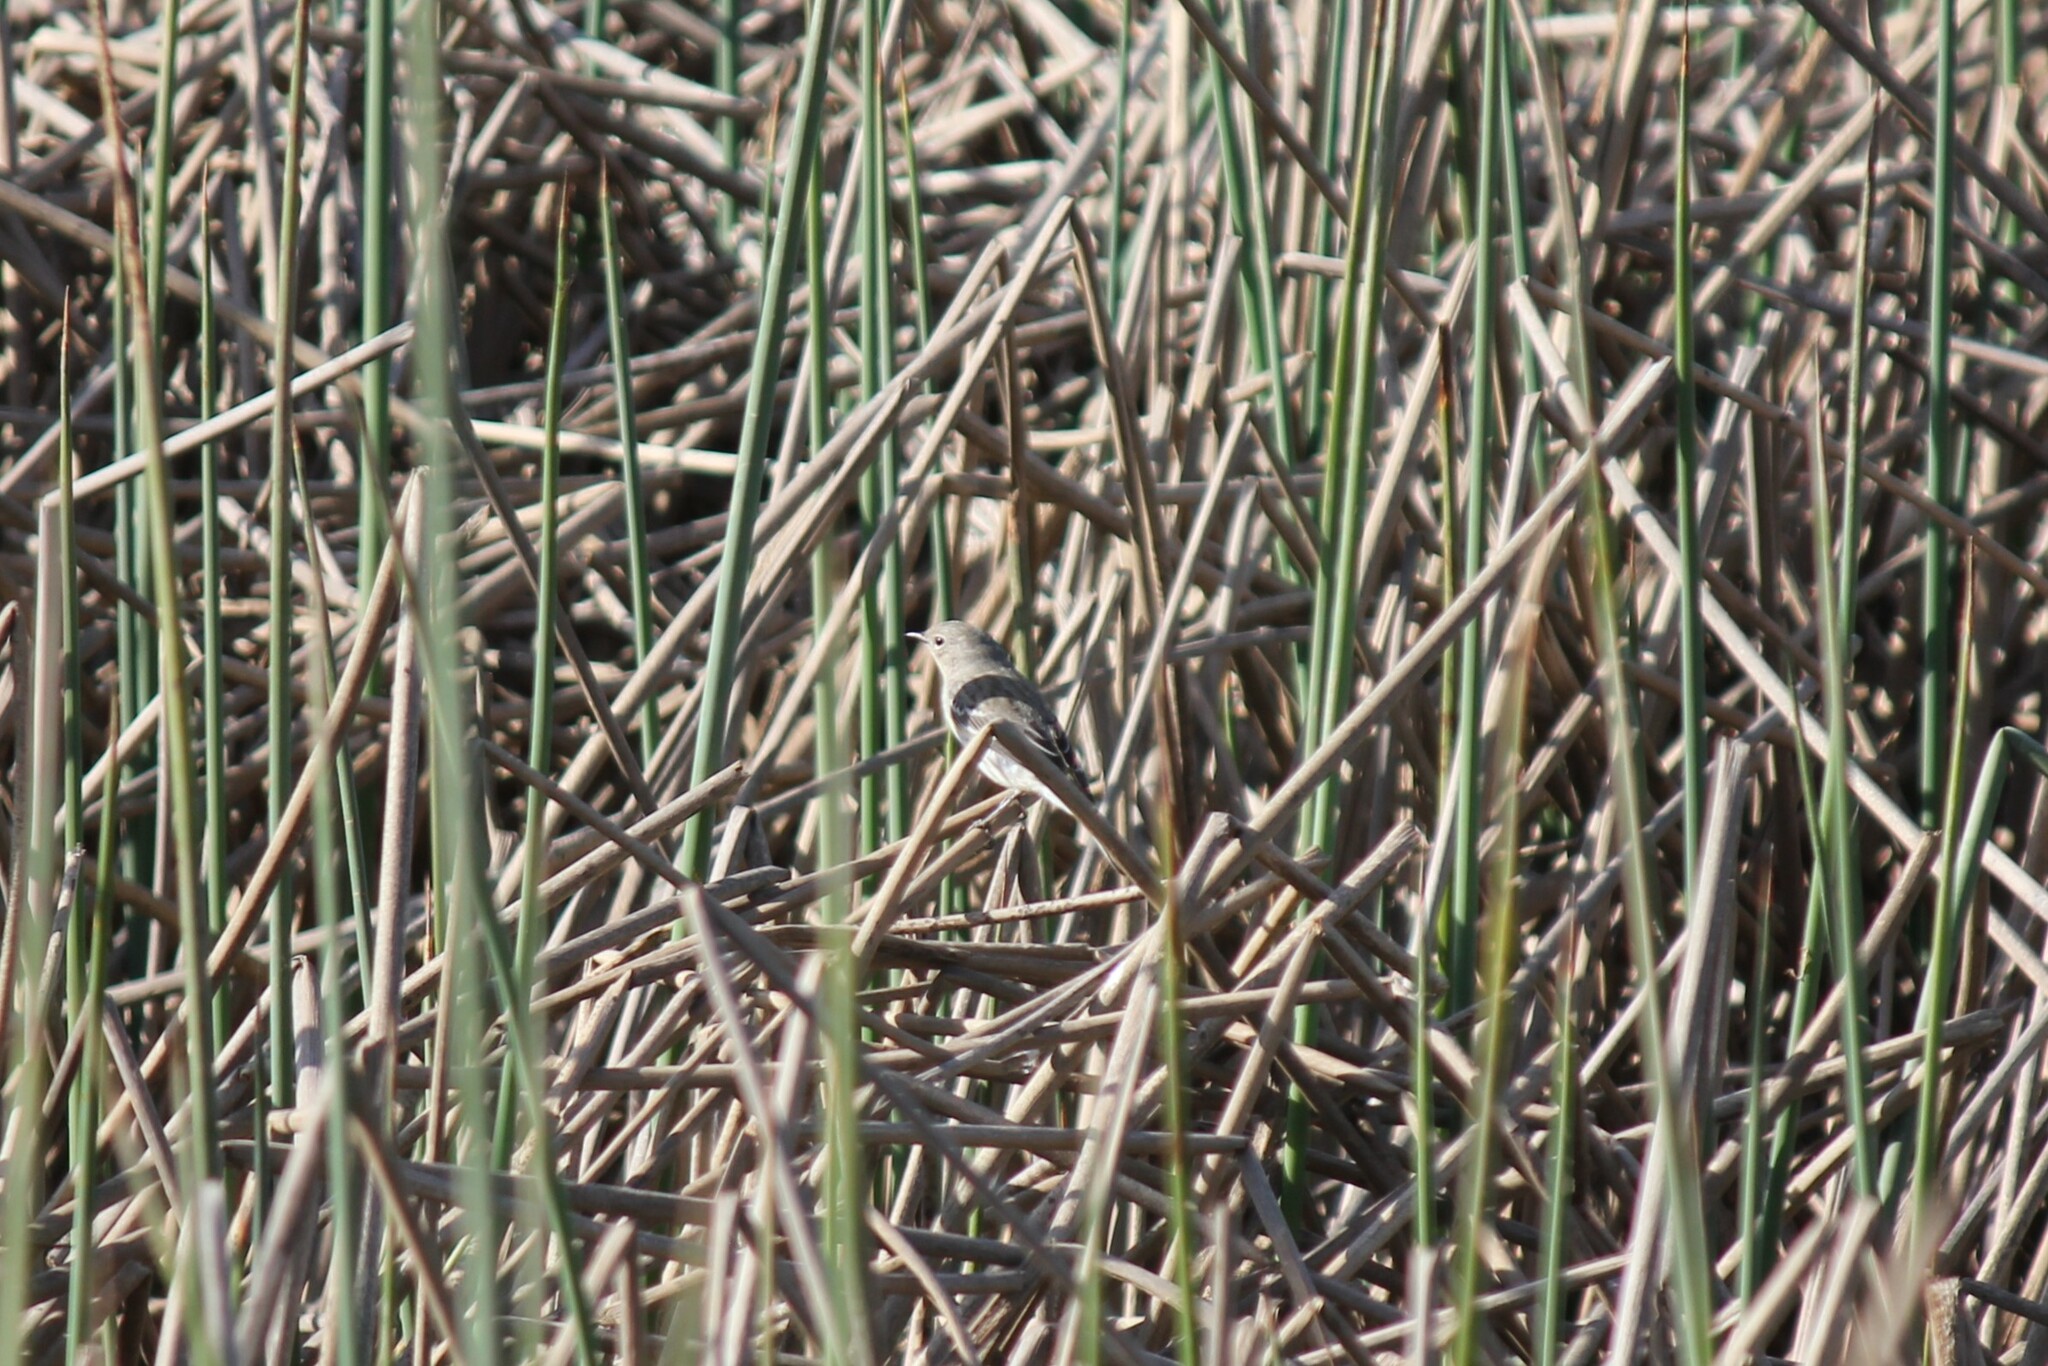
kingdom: Animalia
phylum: Chordata
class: Aves
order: Passeriformes
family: Parulidae
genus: Setophaga
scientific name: Setophaga coronata
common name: Myrtle warbler
